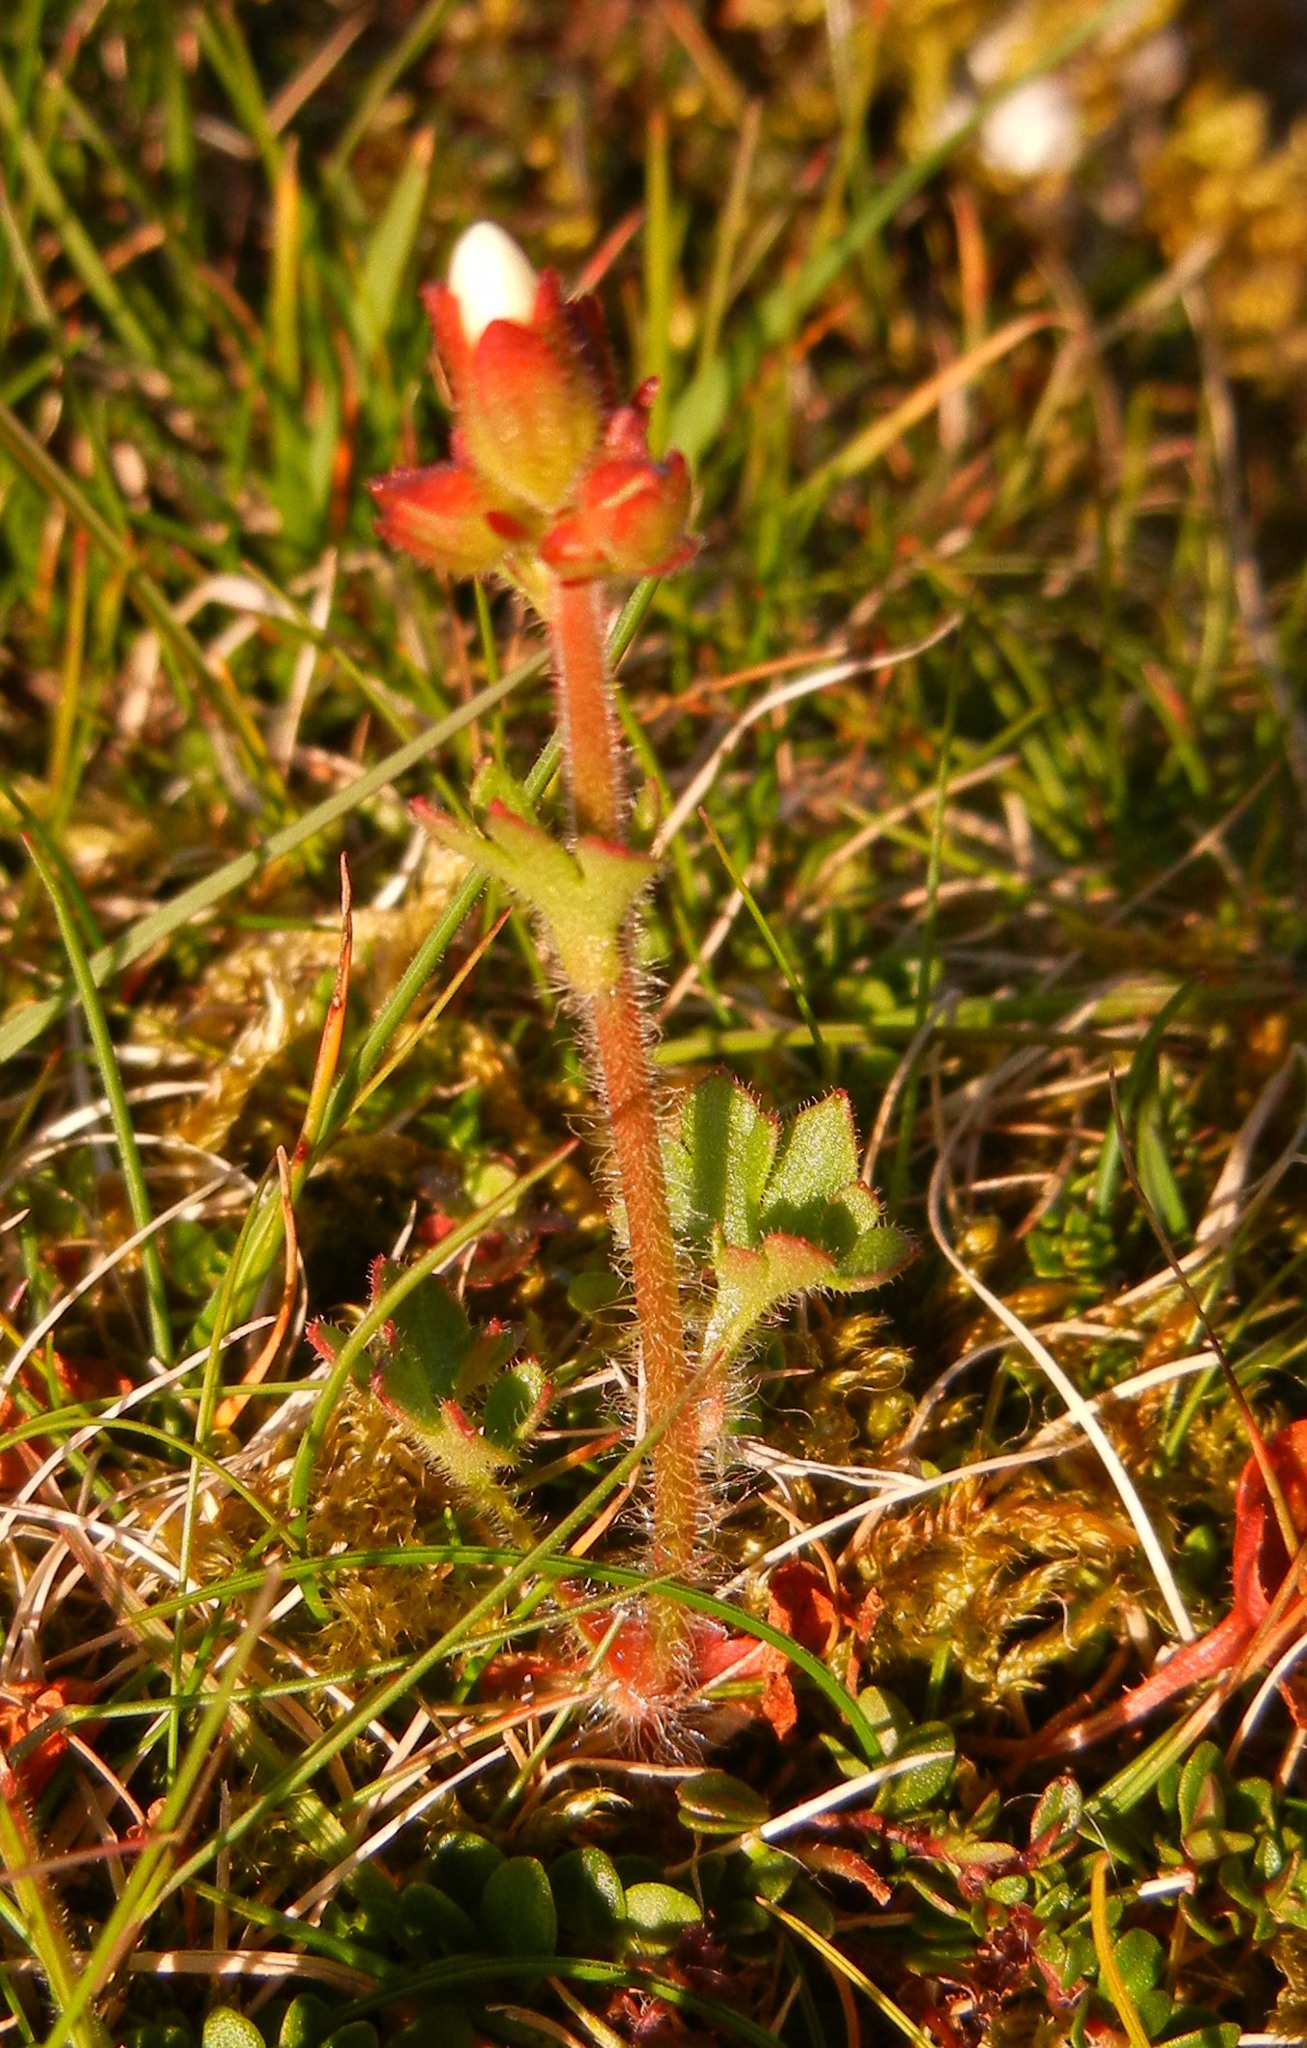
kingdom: Plantae
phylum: Tracheophyta
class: Magnoliopsida
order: Saxifragales
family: Saxifragaceae
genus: Saxifraga
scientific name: Saxifraga granulata
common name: Meadow saxifrage
